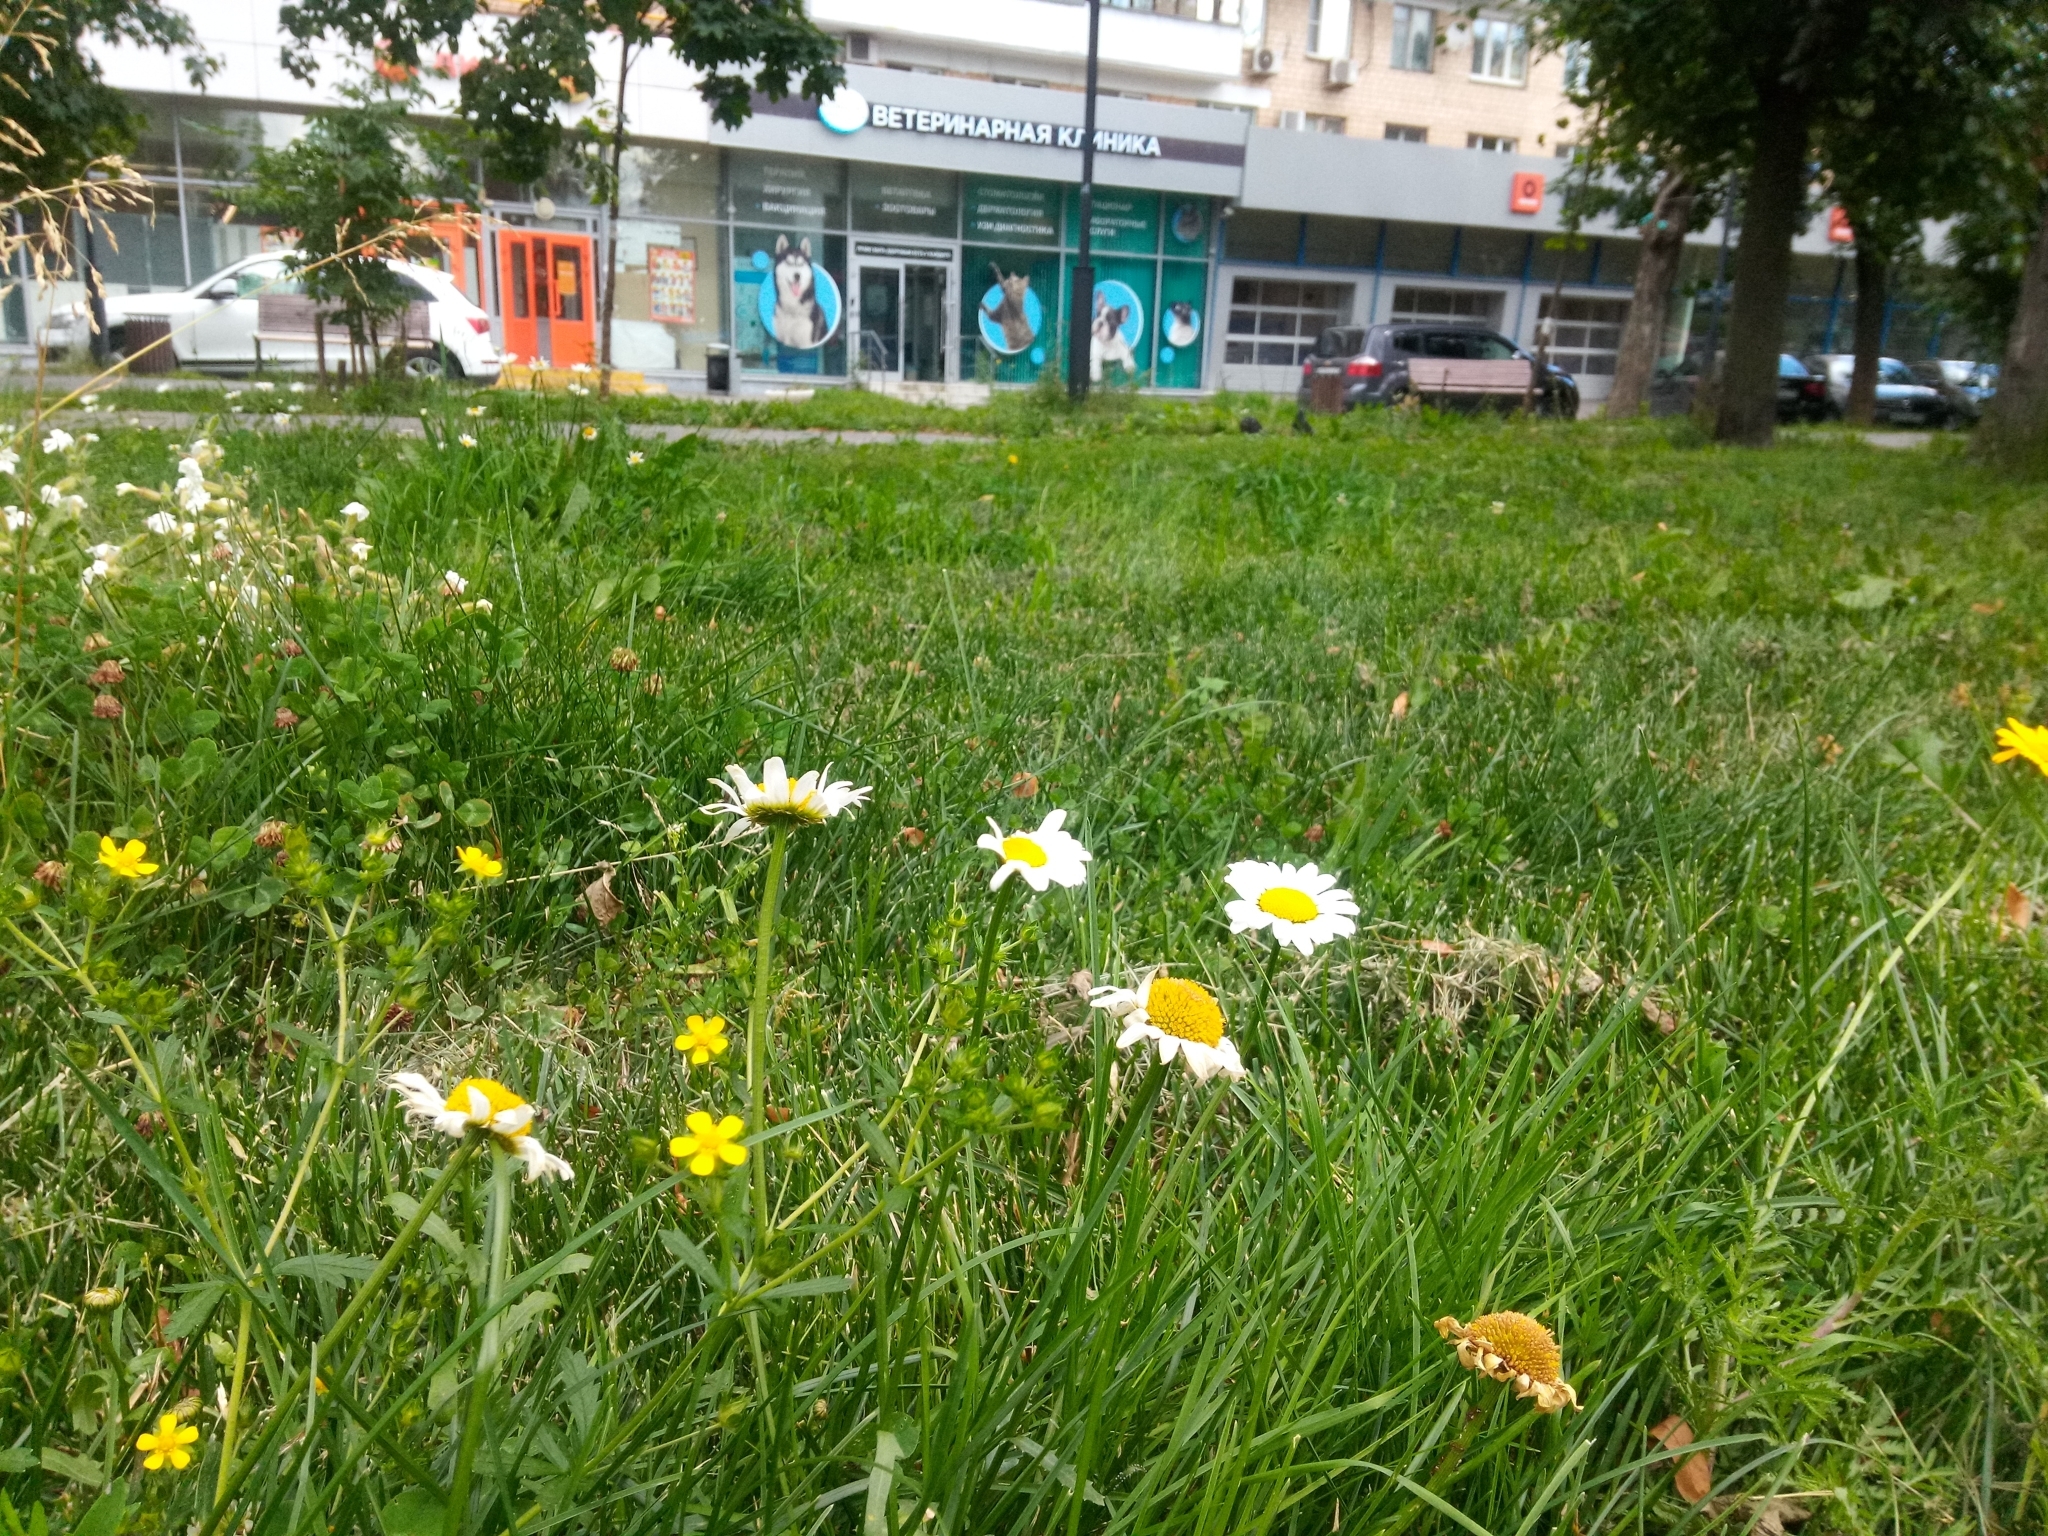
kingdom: Plantae
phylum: Tracheophyta
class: Magnoliopsida
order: Asterales
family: Asteraceae
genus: Leucanthemum
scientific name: Leucanthemum vulgare
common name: Oxeye daisy
